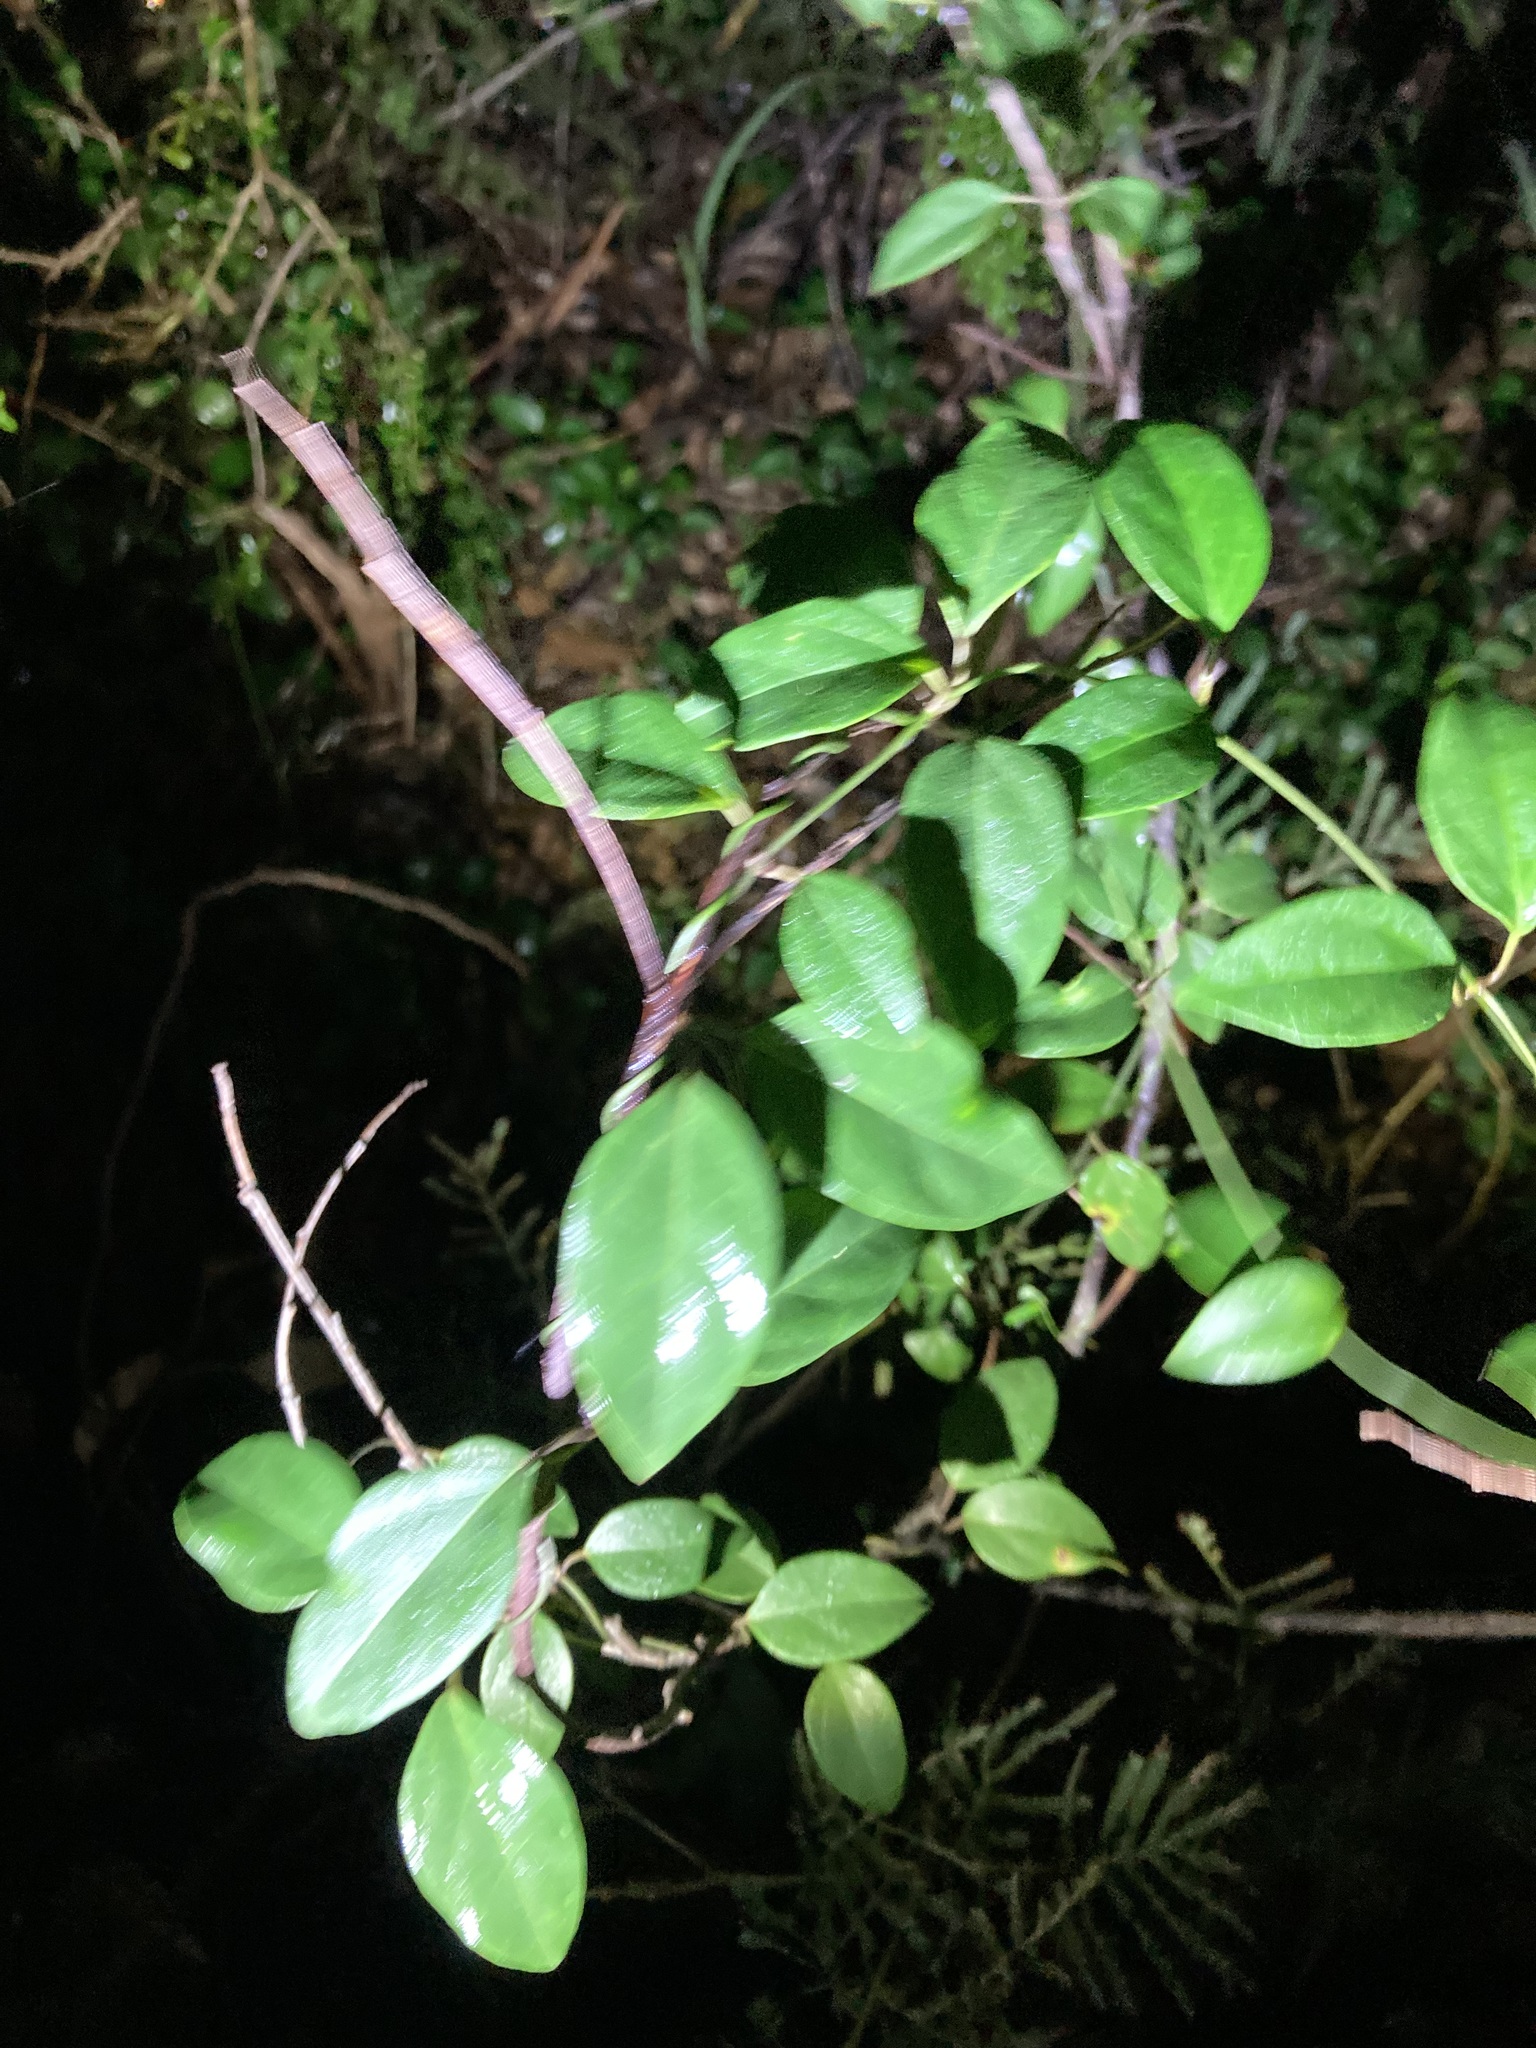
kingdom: Plantae
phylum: Tracheophyta
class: Magnoliopsida
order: Gentianales
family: Apocynaceae
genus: Vincetoxicum
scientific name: Vincetoxicum barbatum
